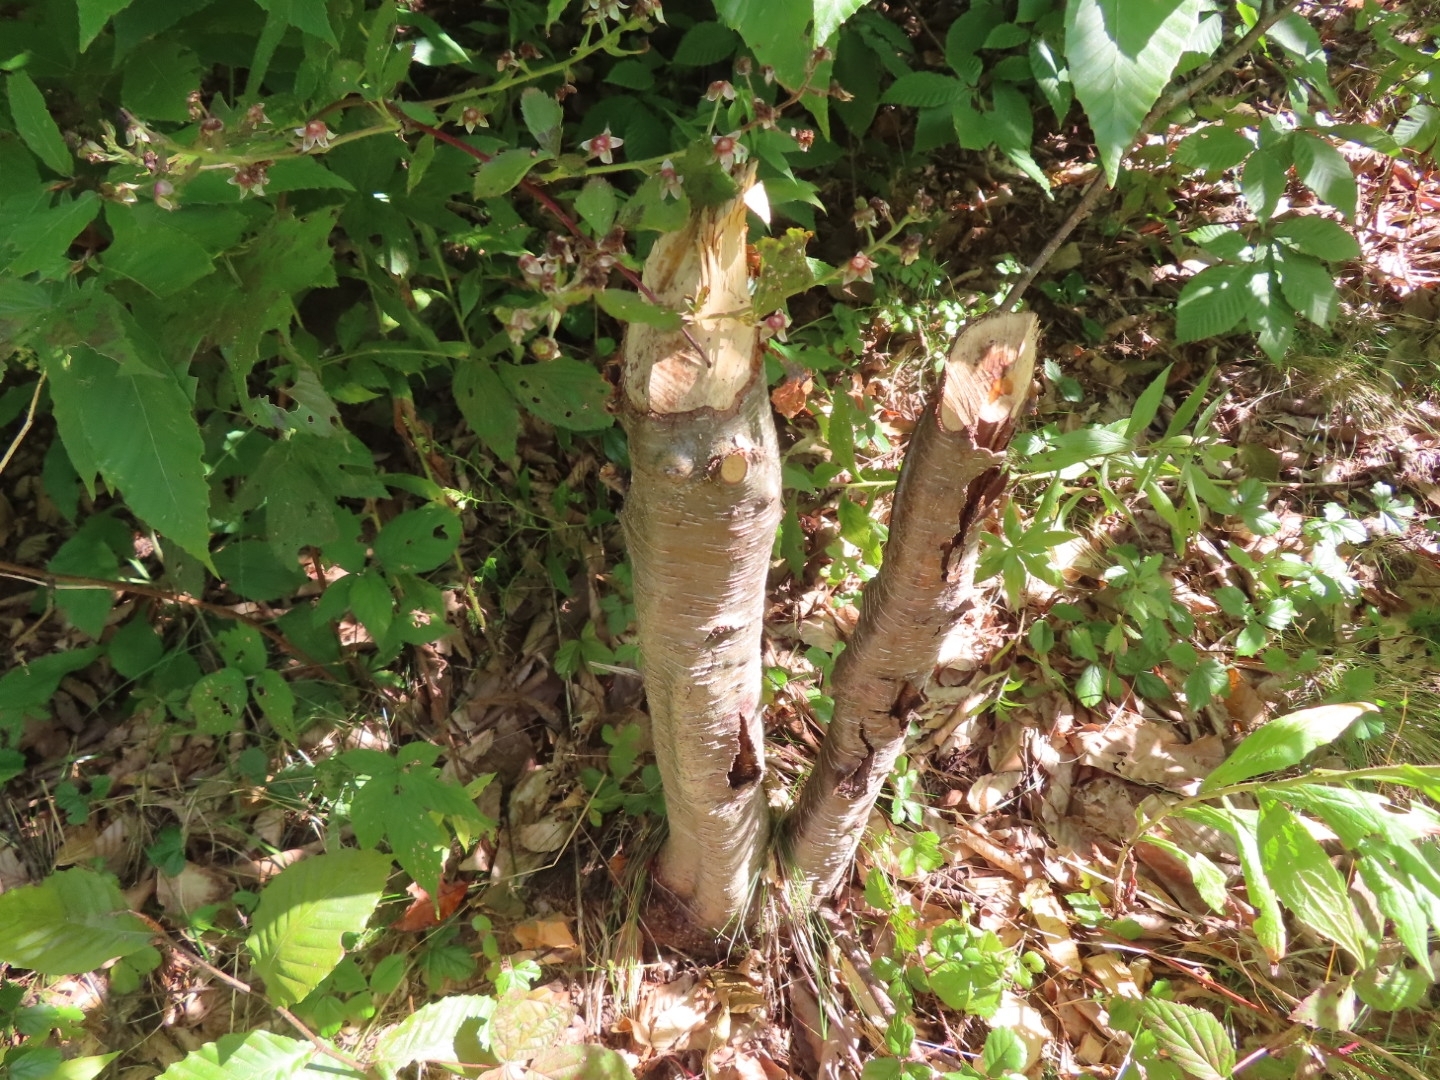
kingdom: Animalia
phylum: Chordata
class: Mammalia
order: Rodentia
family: Castoridae
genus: Castor
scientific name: Castor canadensis
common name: American beaver
